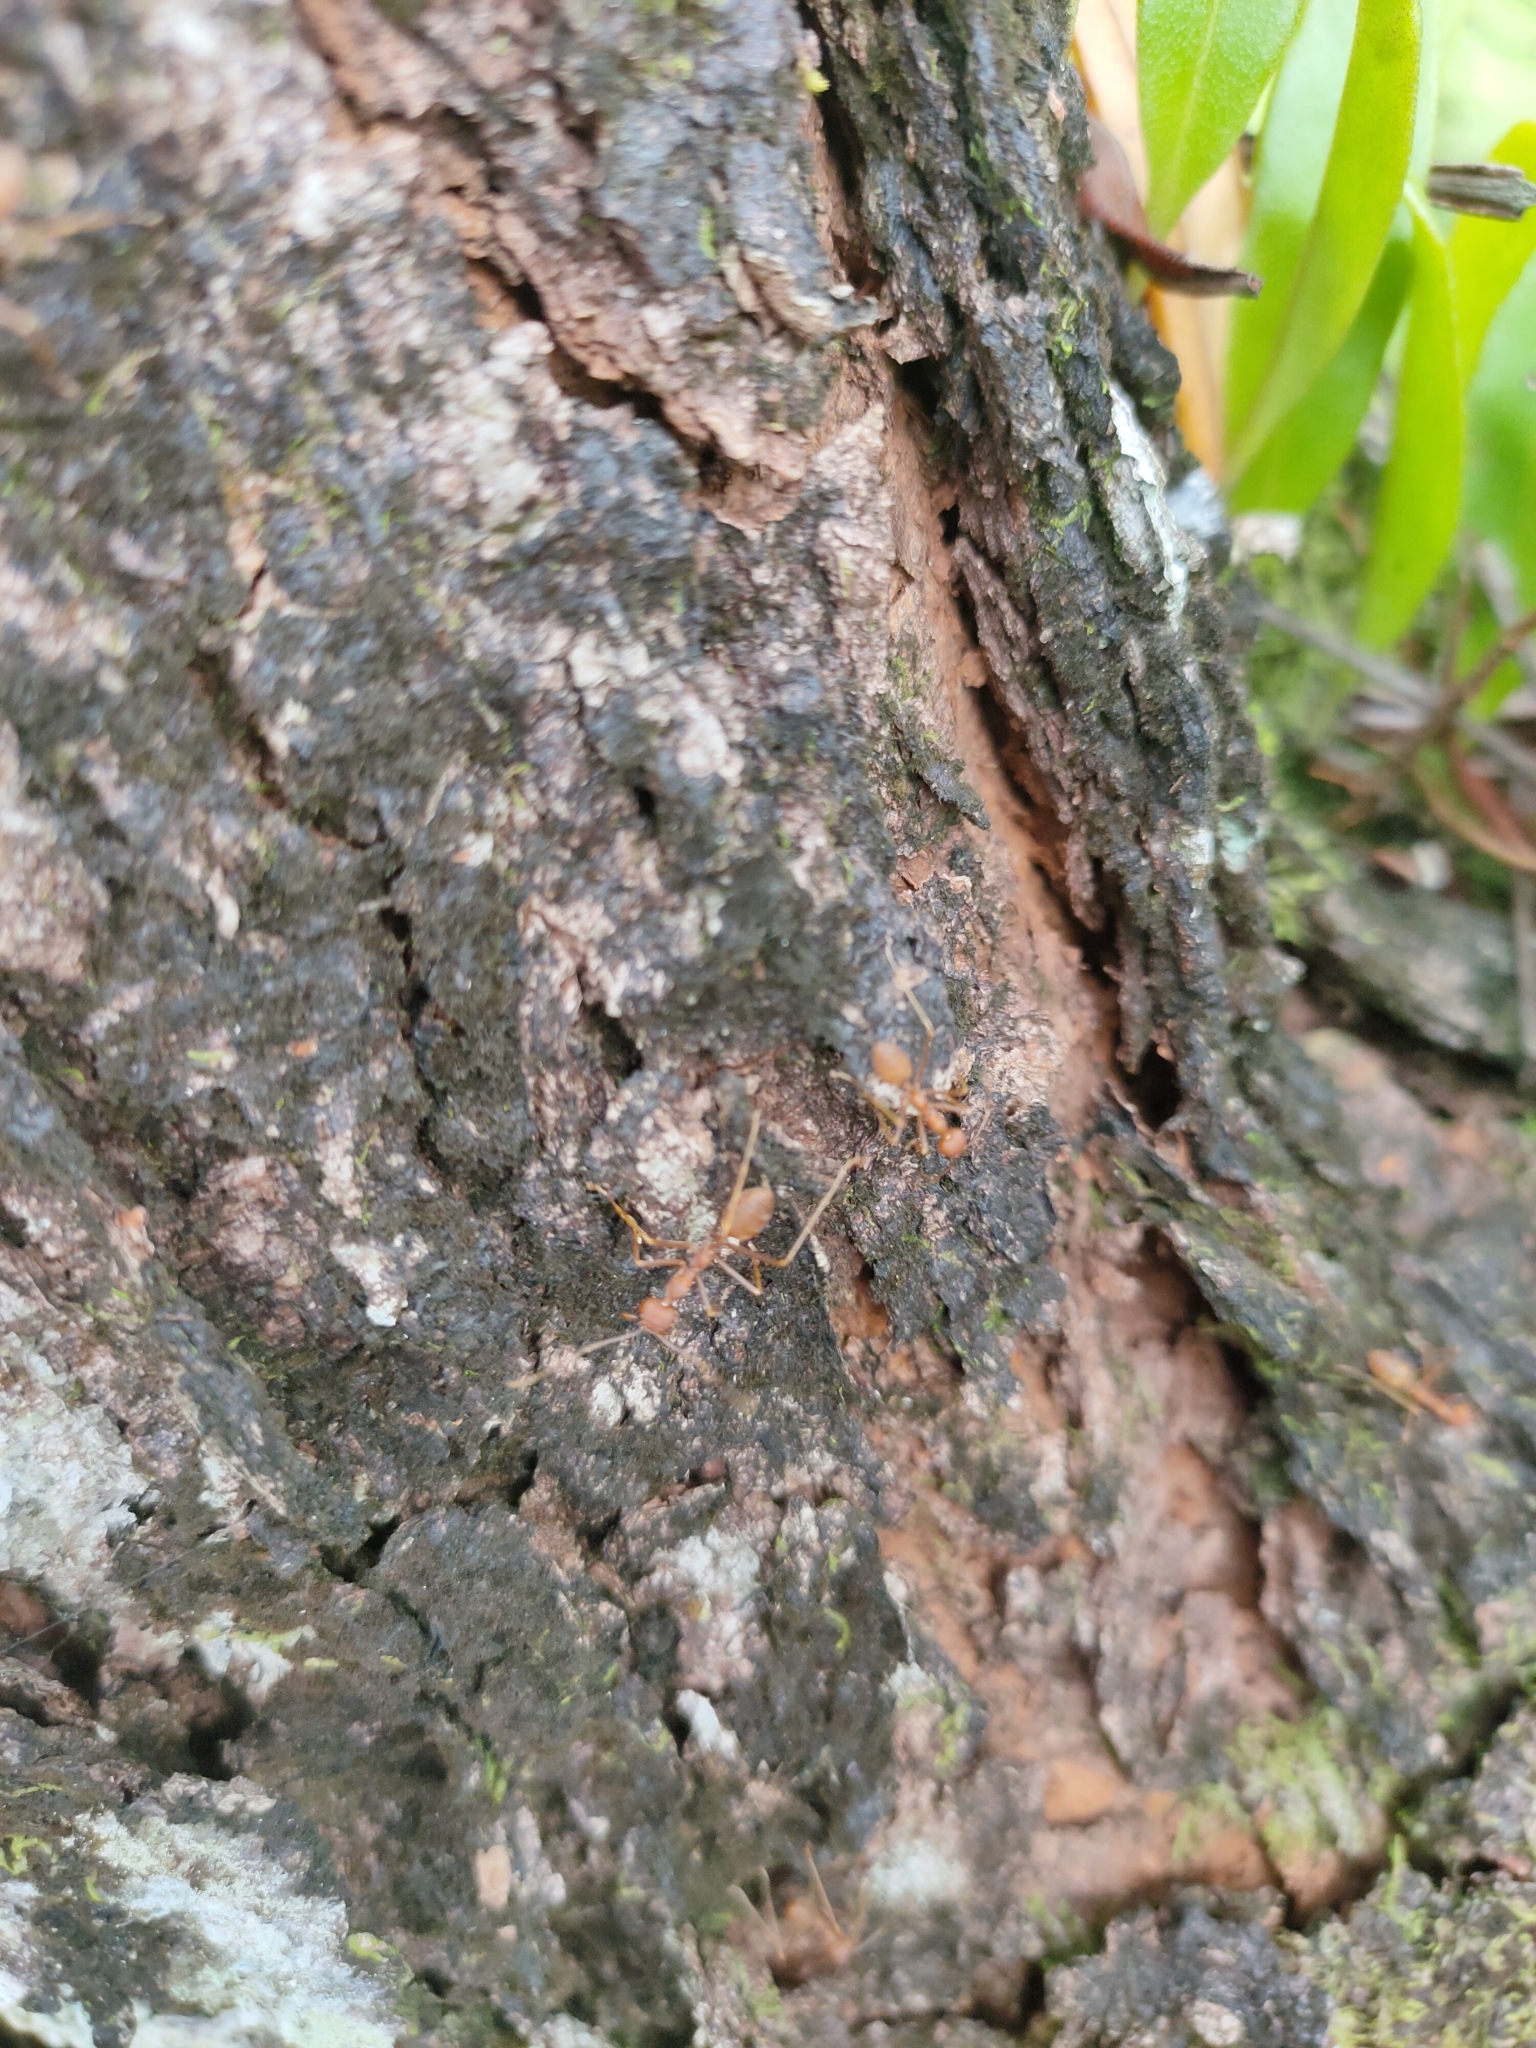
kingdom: Animalia
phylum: Arthropoda
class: Insecta
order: Hymenoptera
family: Formicidae
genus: Oecophylla
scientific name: Oecophylla smaragdina
